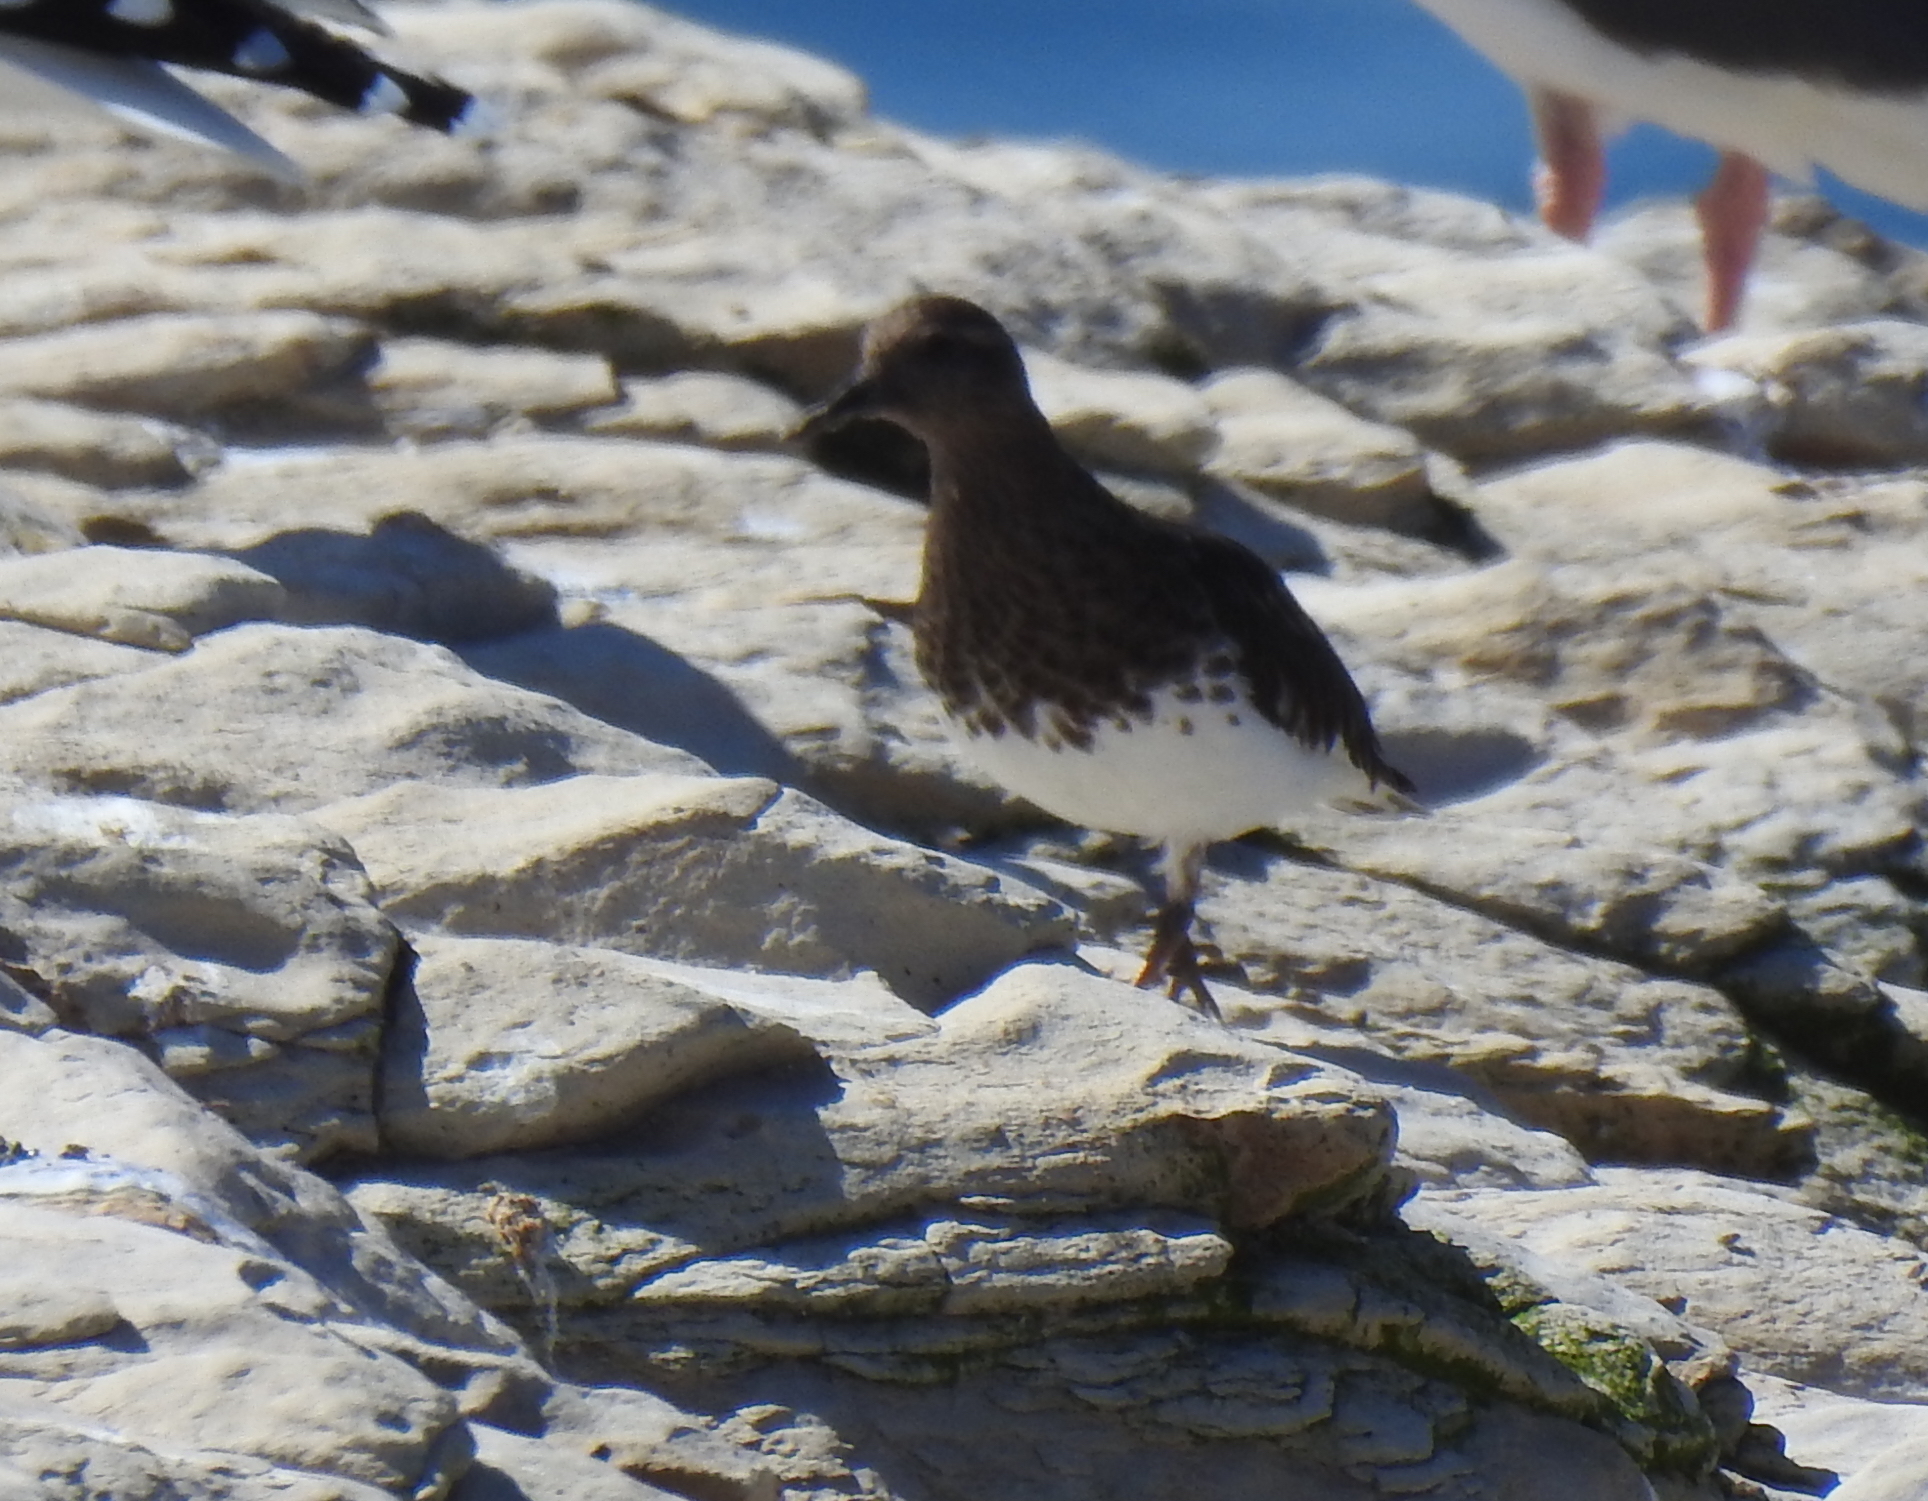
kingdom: Animalia
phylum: Chordata
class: Aves
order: Charadriiformes
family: Scolopacidae
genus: Arenaria
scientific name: Arenaria melanocephala
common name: Black turnstone
